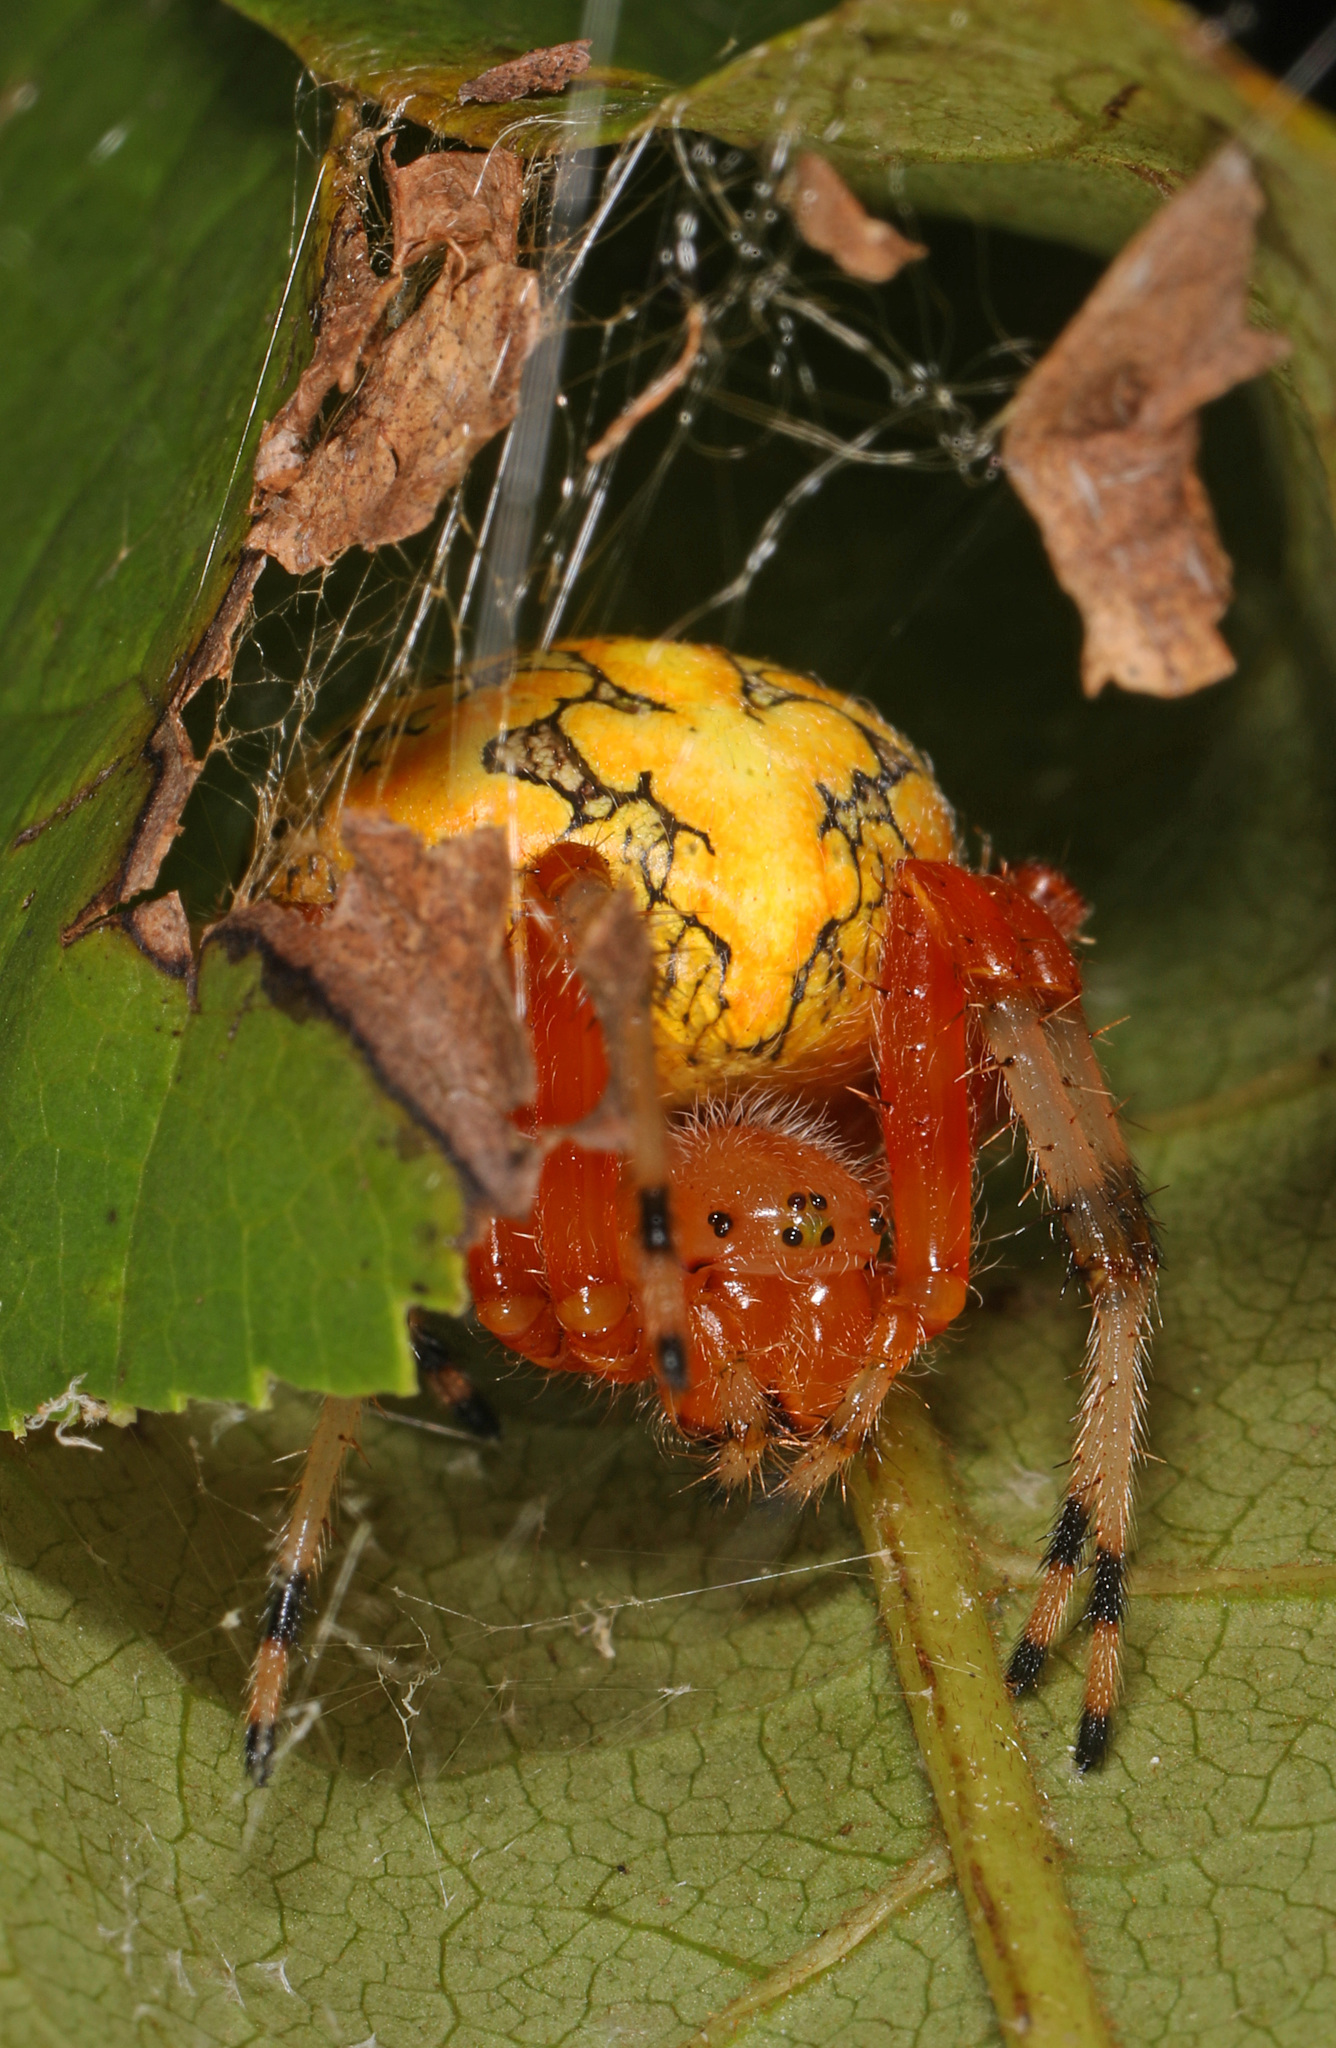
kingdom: Animalia
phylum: Arthropoda
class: Arachnida
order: Araneae
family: Araneidae
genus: Araneus
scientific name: Araneus marmoreus
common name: Marbled orbweaver
